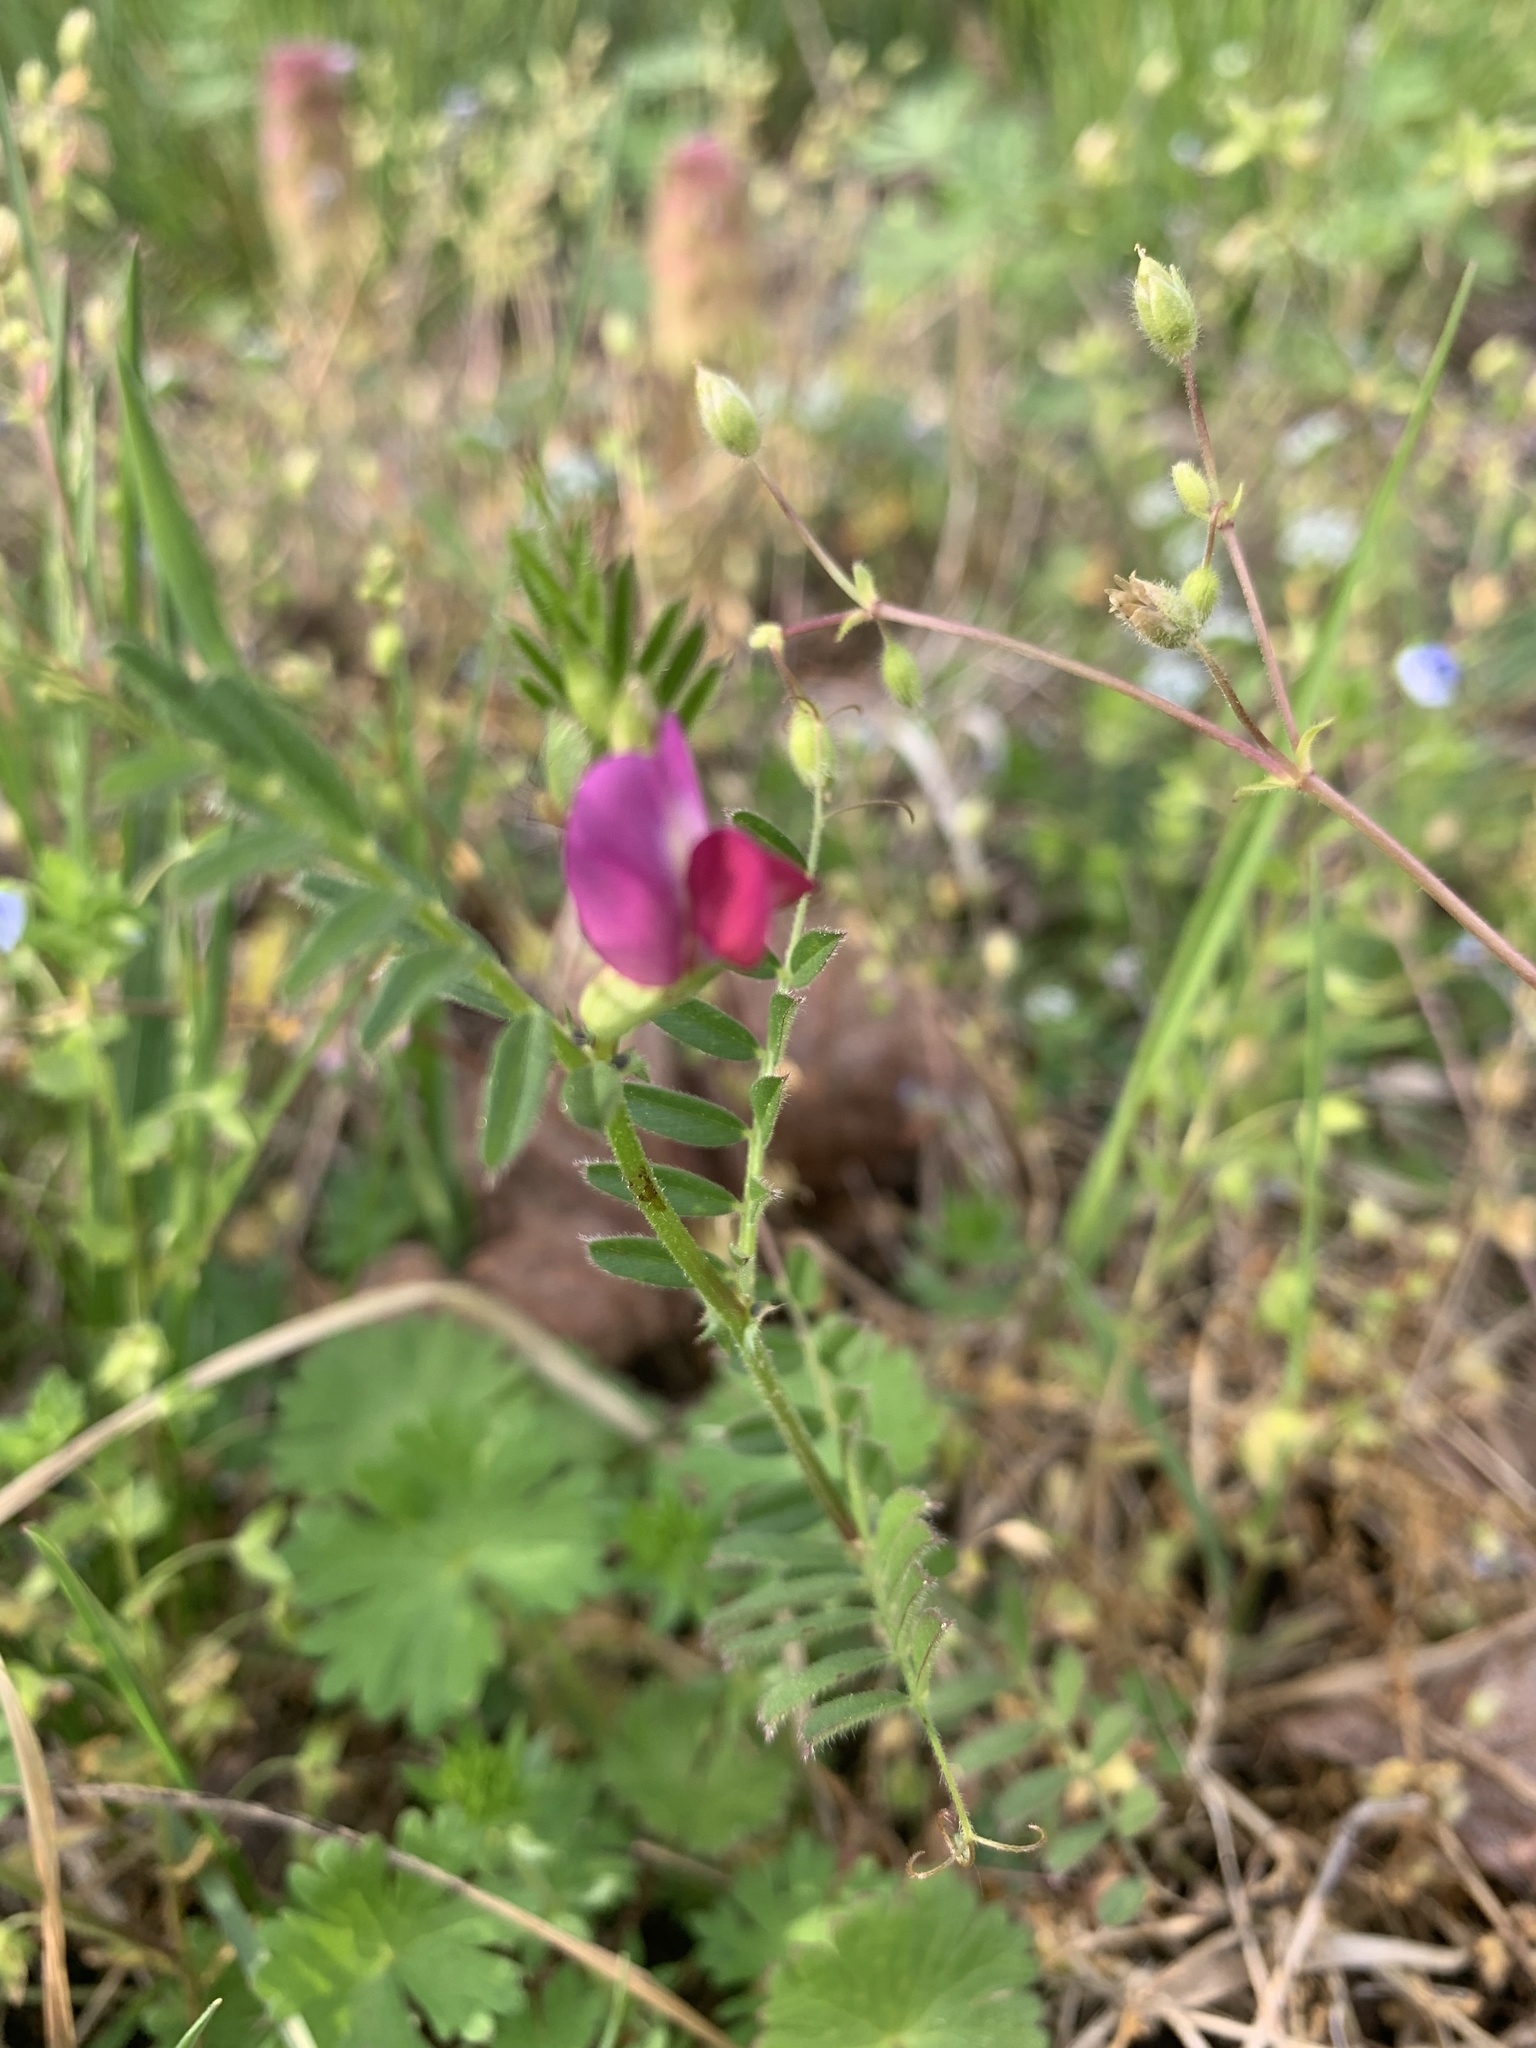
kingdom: Plantae
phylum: Tracheophyta
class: Magnoliopsida
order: Fabales
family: Fabaceae
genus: Vicia
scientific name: Vicia sativa
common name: Garden vetch
